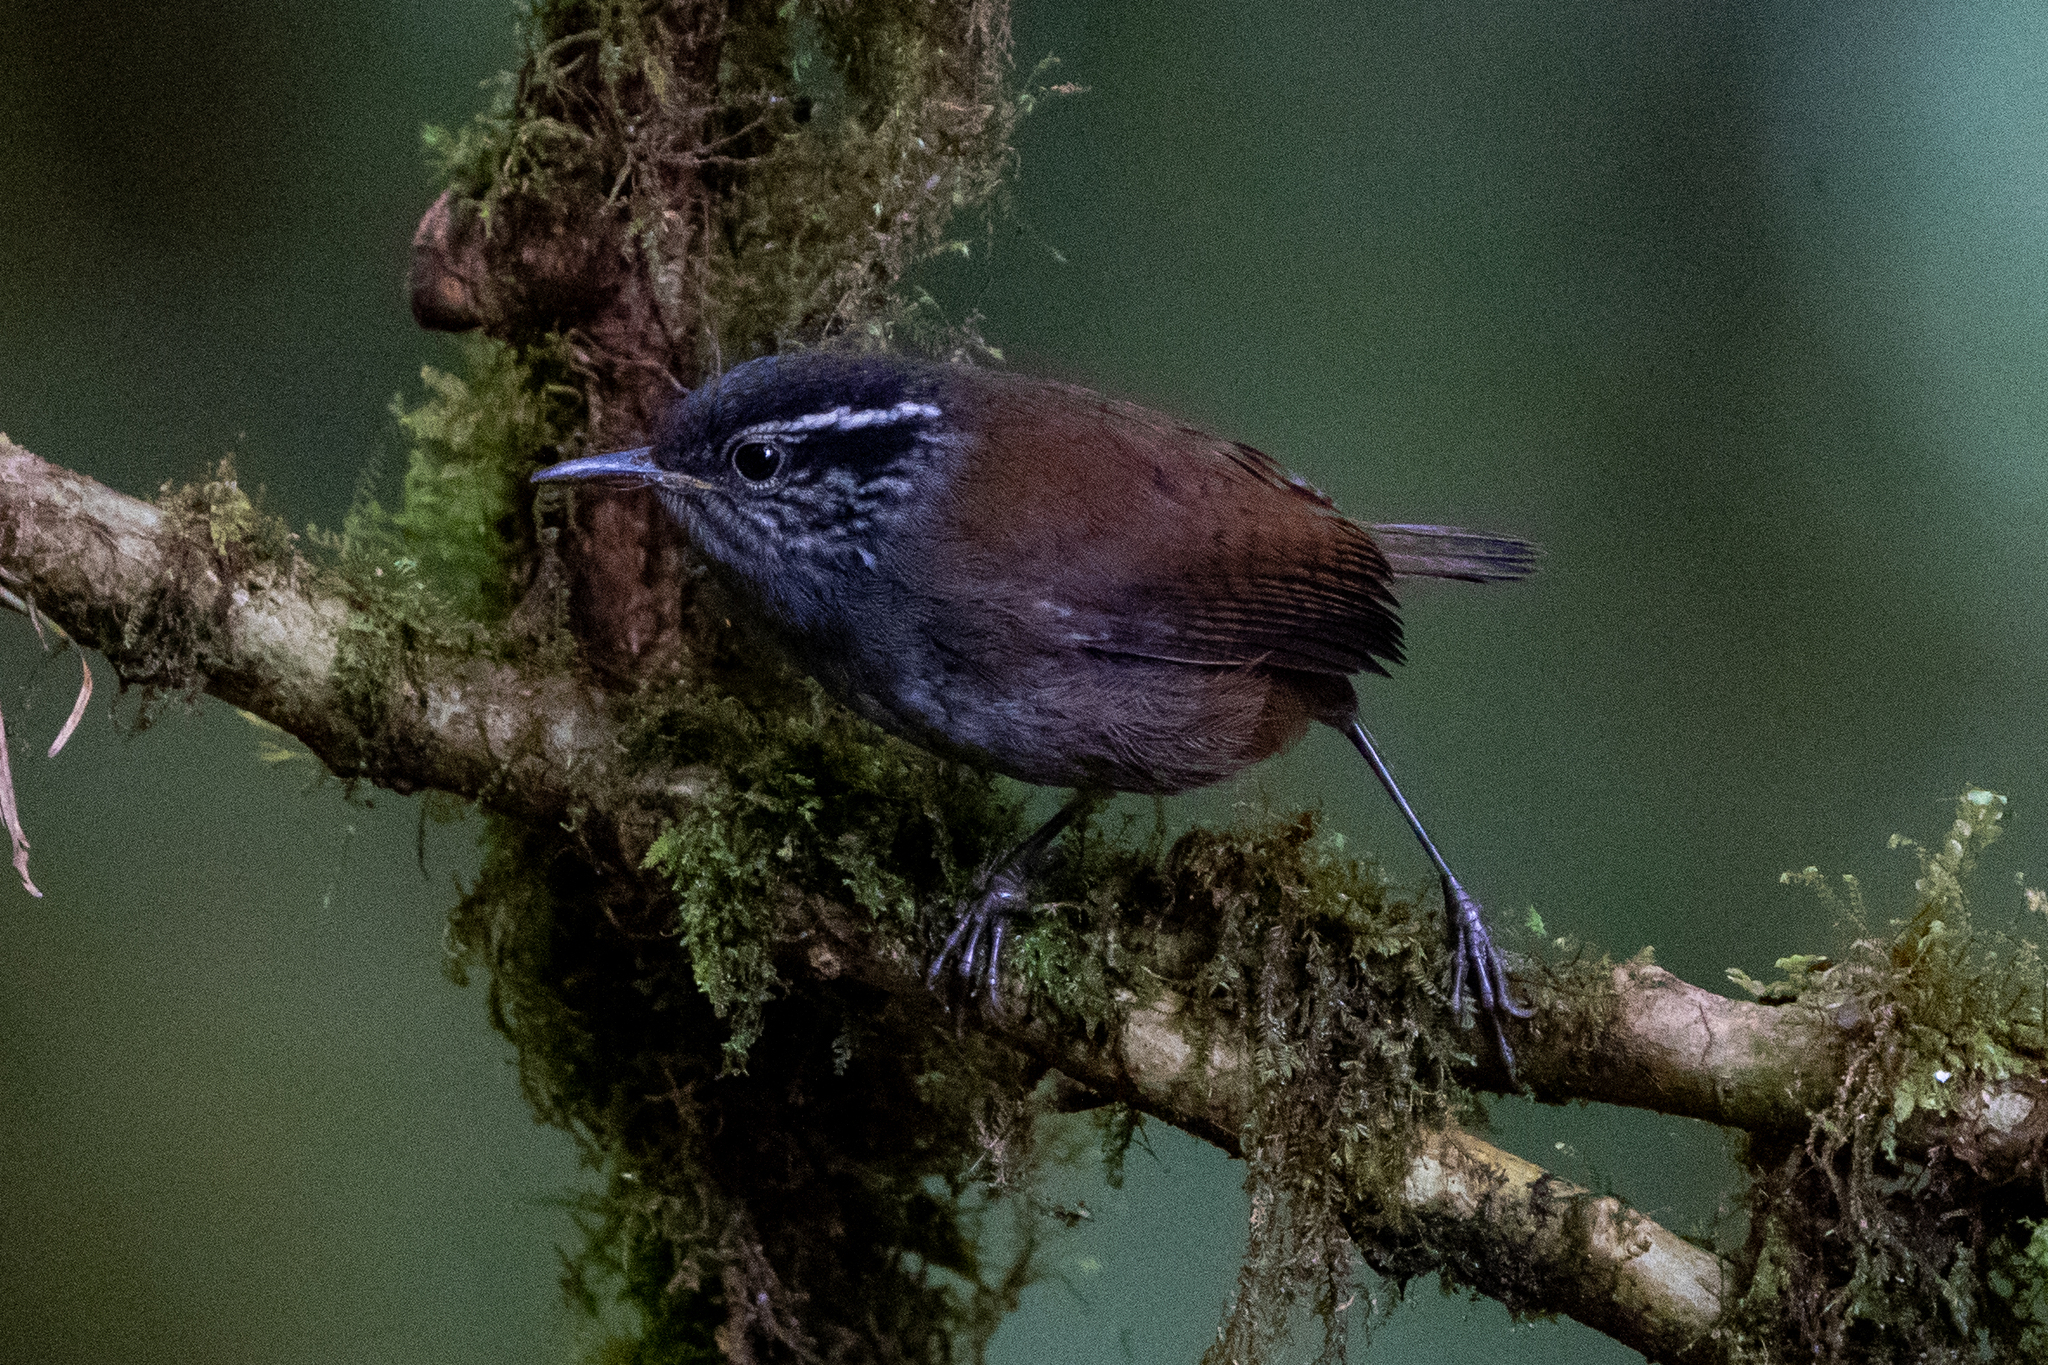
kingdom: Animalia
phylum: Chordata
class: Aves
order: Passeriformes
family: Troglodytidae
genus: Henicorhina
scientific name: Henicorhina leucophrys
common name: Gray-breasted wood-wren
